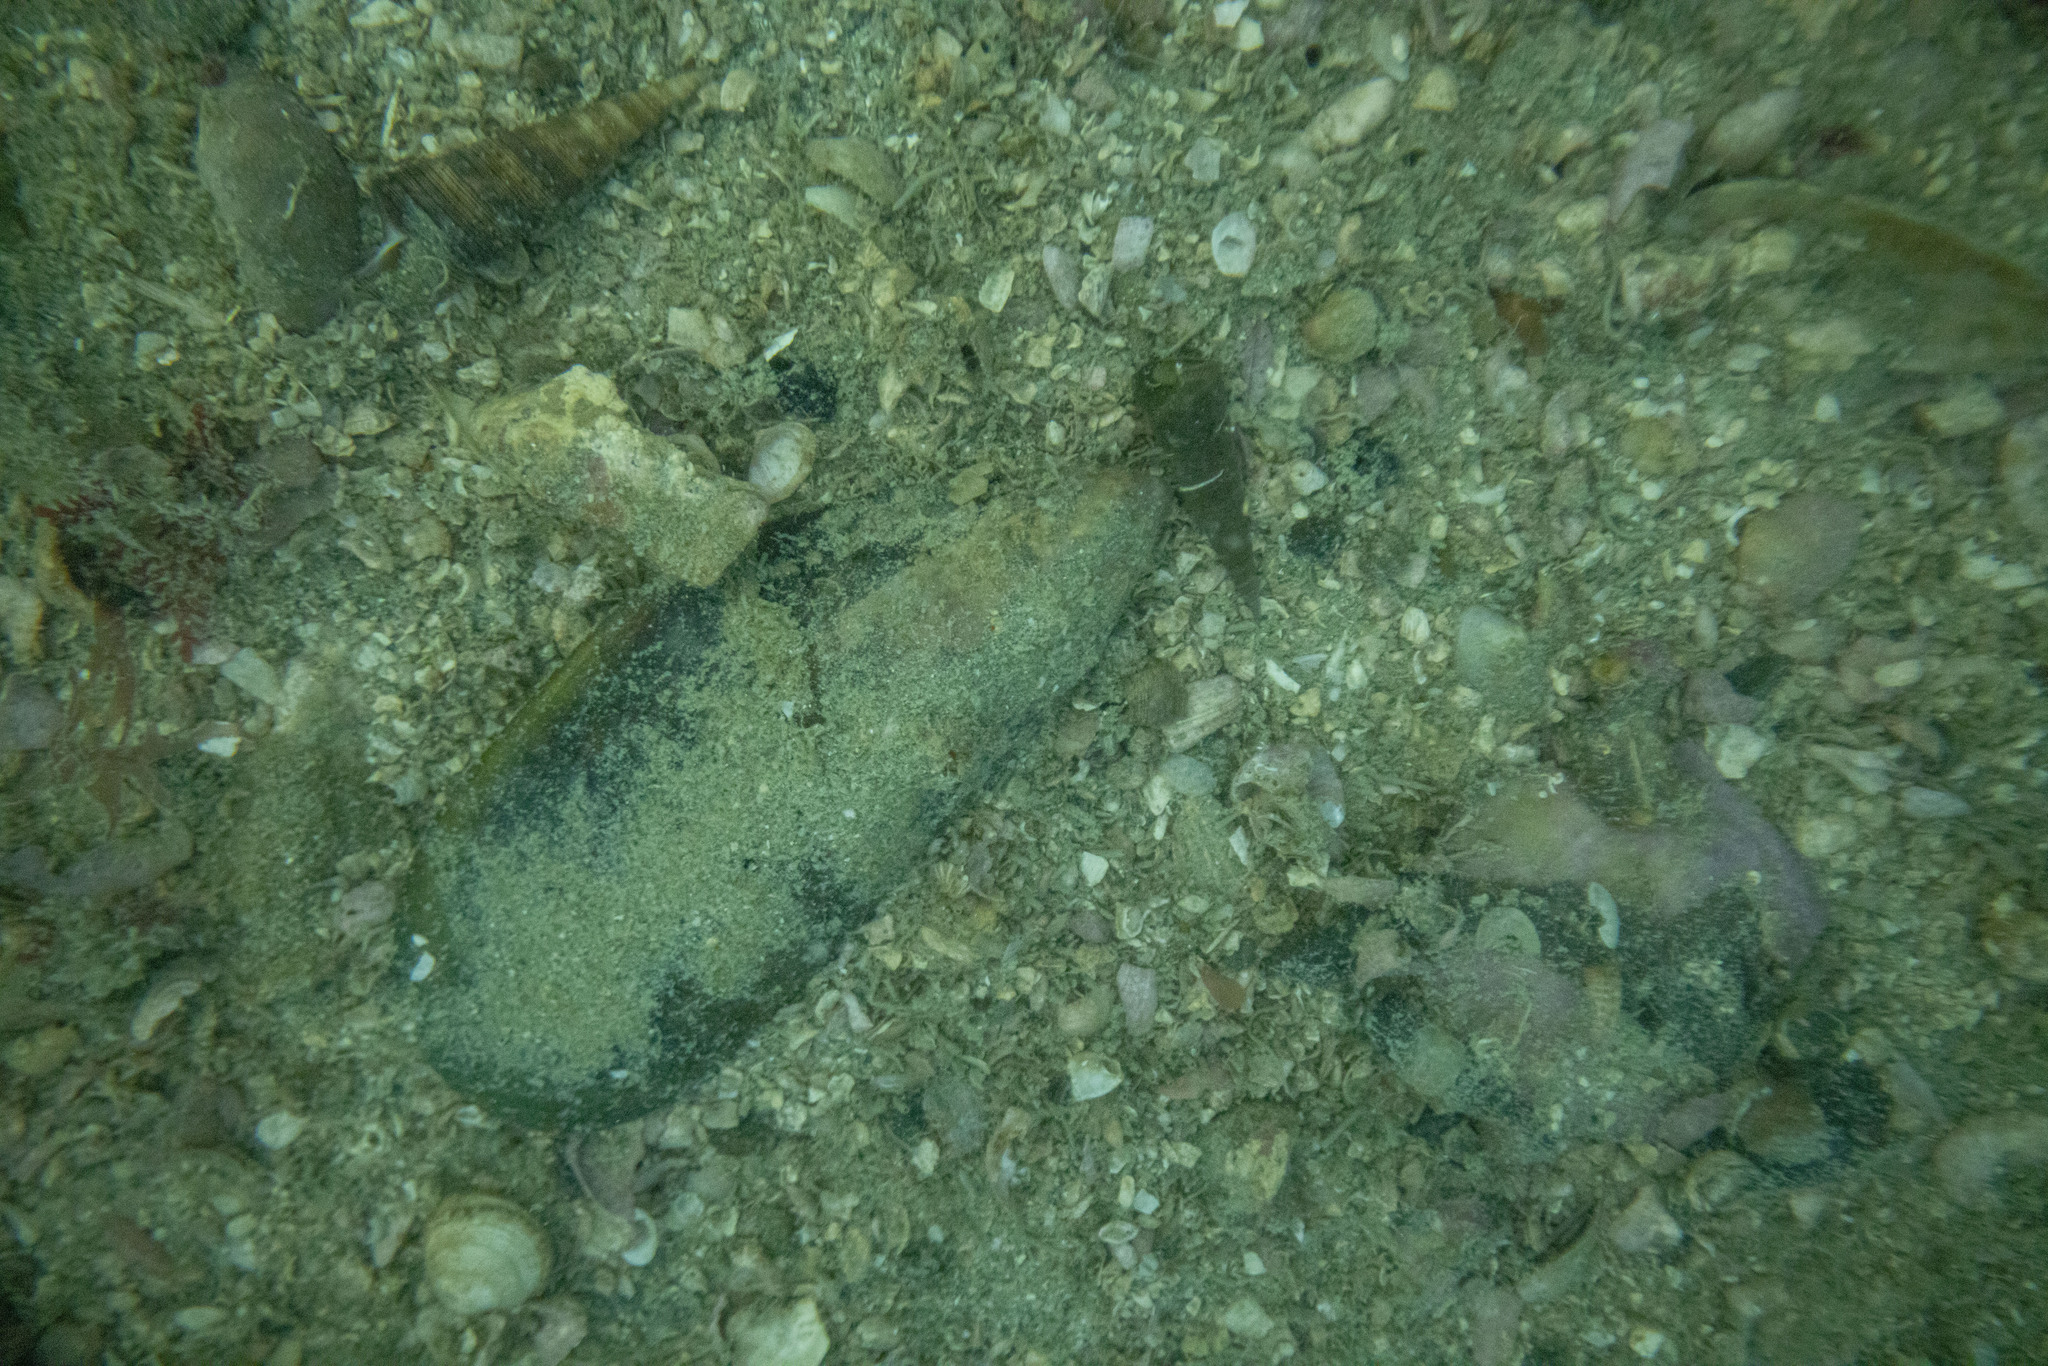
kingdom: Animalia
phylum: Mollusca
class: Bivalvia
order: Mytilida
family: Mytilidae
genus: Perna
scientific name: Perna canaliculus
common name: New zealand greenshelltm
